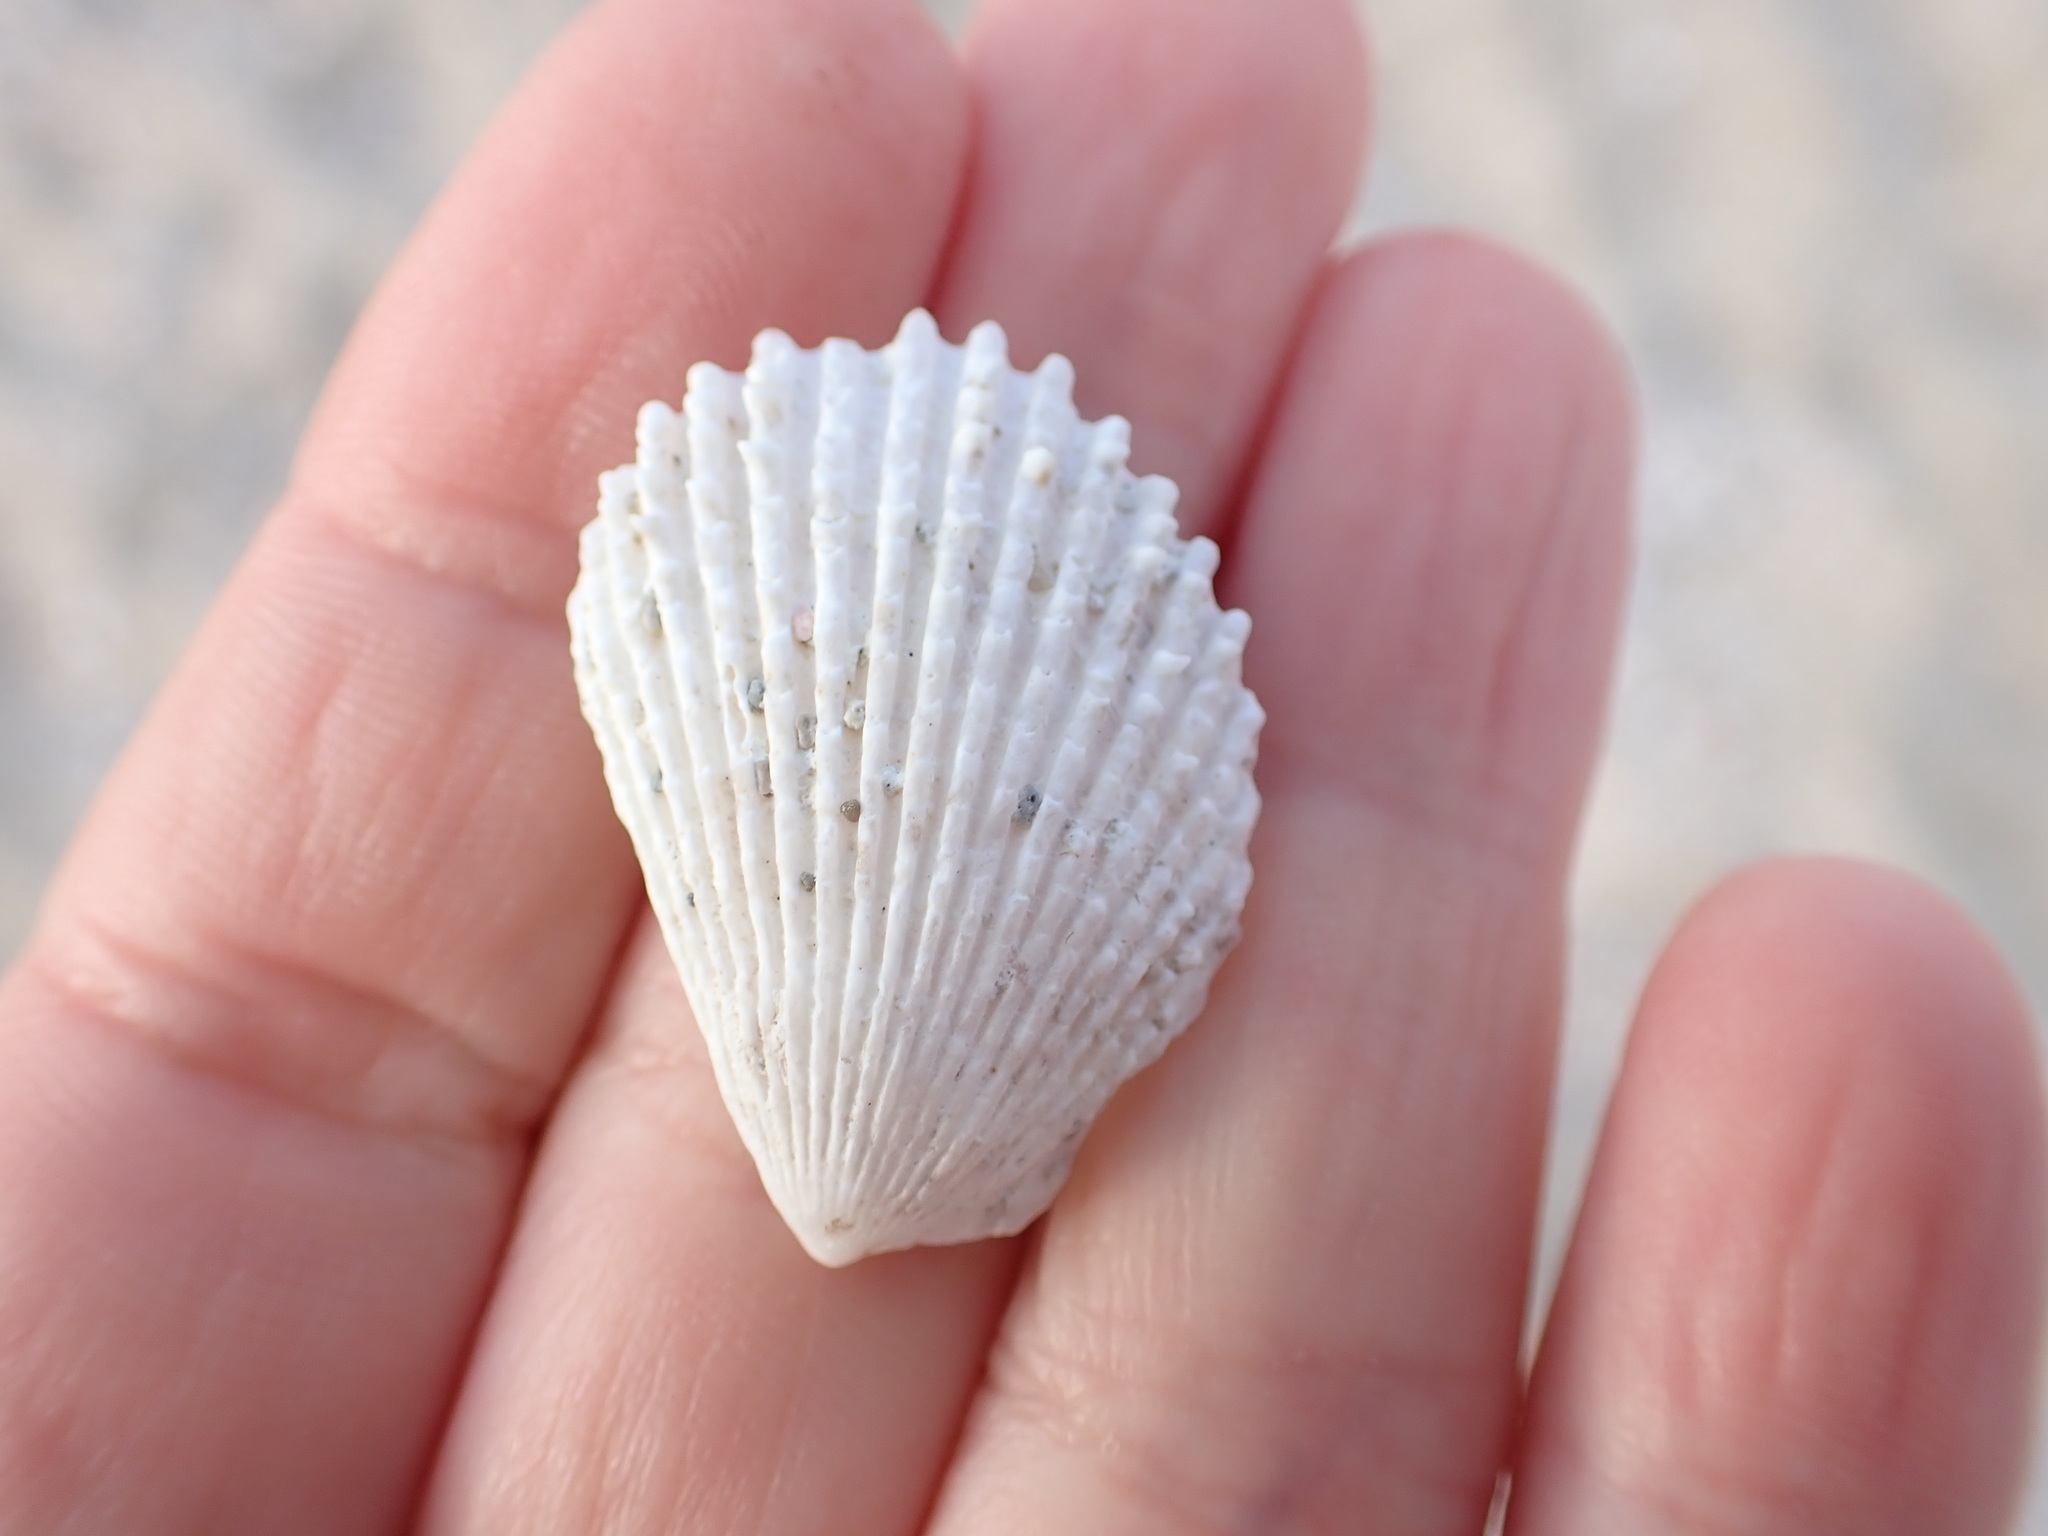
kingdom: Animalia
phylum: Mollusca
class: Bivalvia
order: Limida
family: Limidae
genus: Lima
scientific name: Lima lima
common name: Frilled file shell
